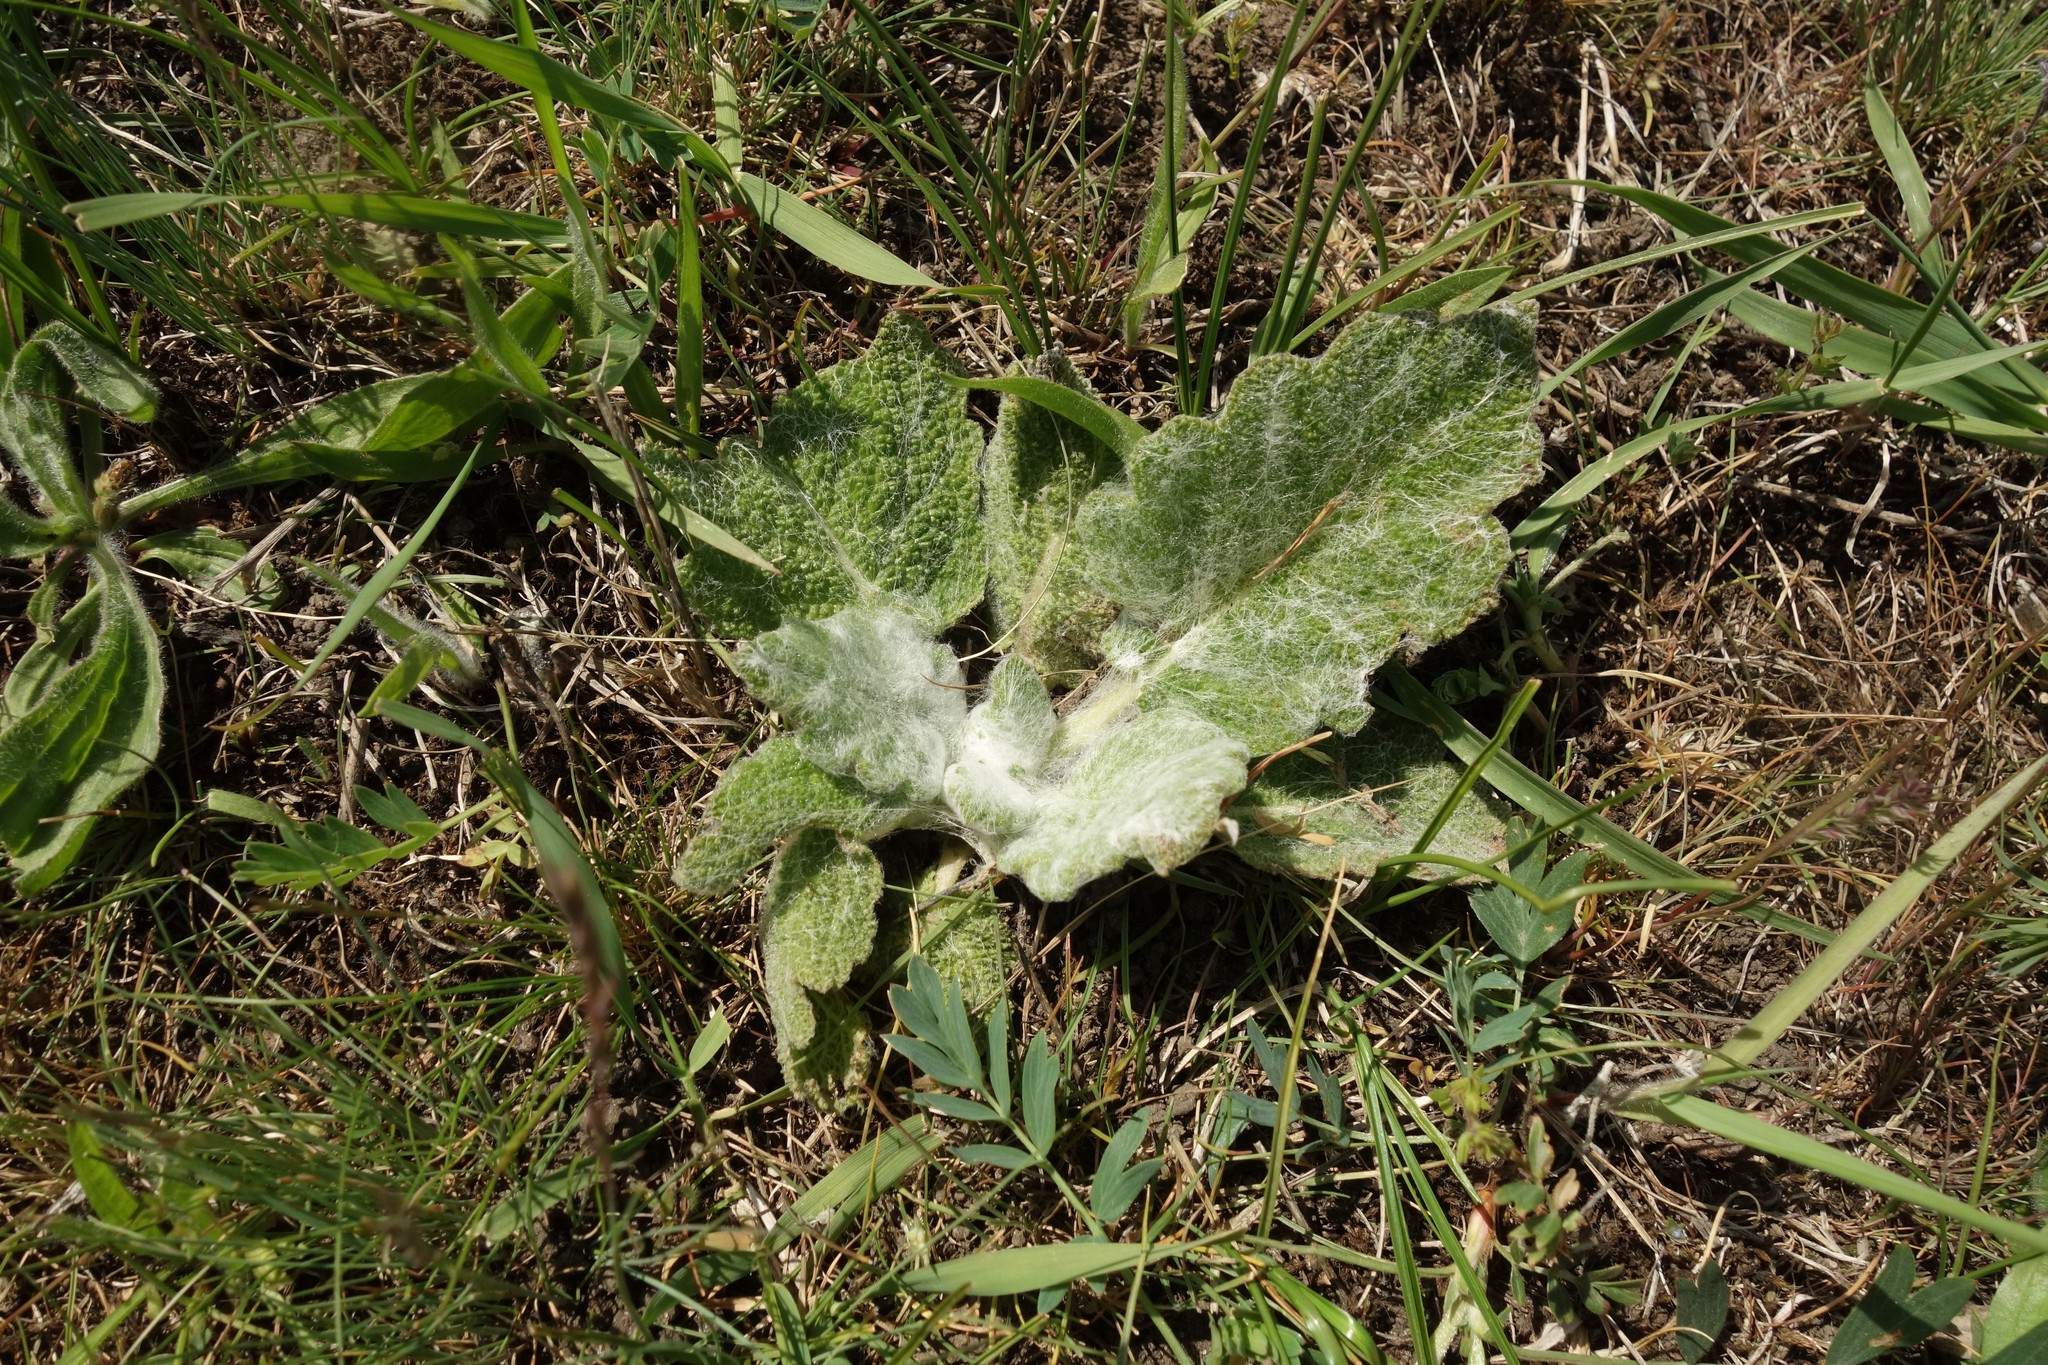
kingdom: Plantae
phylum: Tracheophyta
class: Magnoliopsida
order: Lamiales
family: Lamiaceae
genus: Salvia
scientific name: Salvia aethiopis
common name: Mediterranean sage
